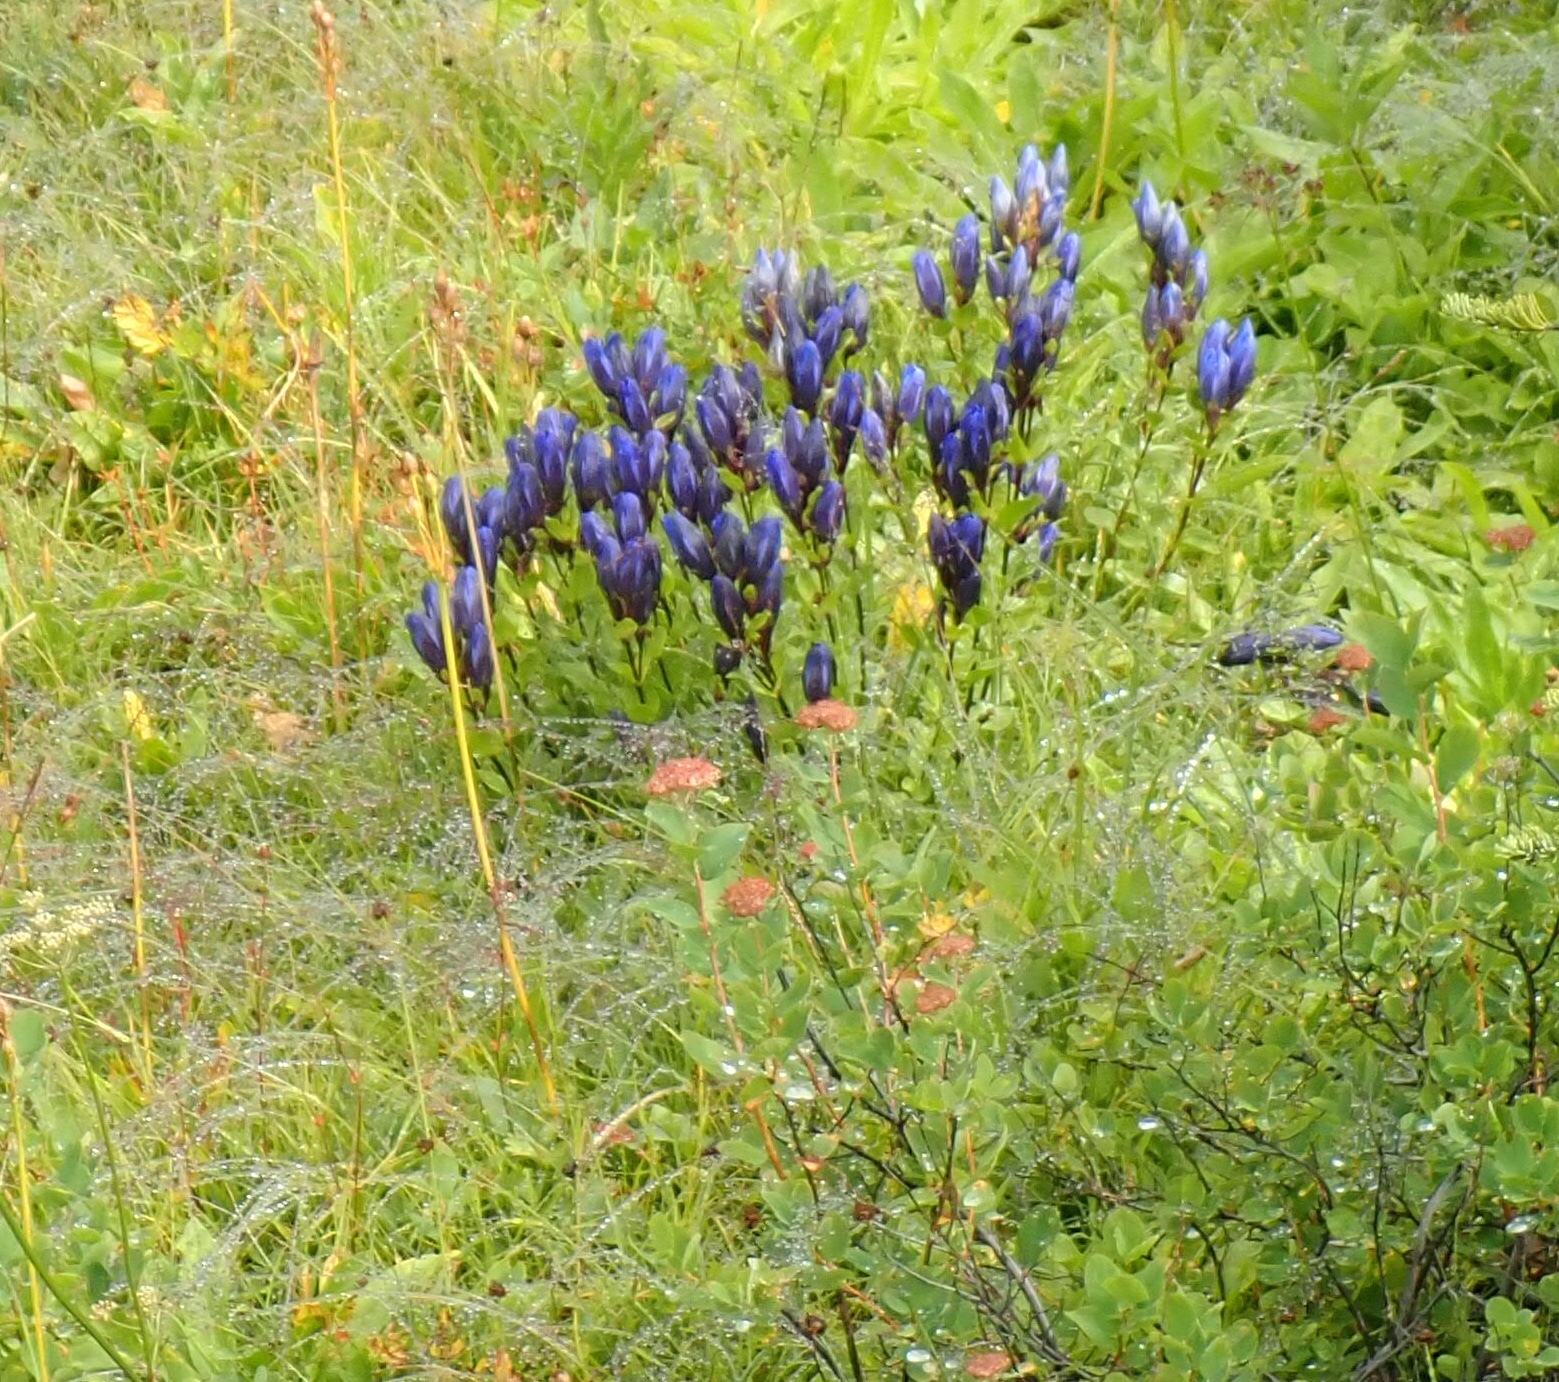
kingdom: Plantae
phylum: Tracheophyta
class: Magnoliopsida
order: Gentianales
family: Gentianaceae
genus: Gentiana
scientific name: Gentiana calycosa
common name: Rainier pleated gentian
